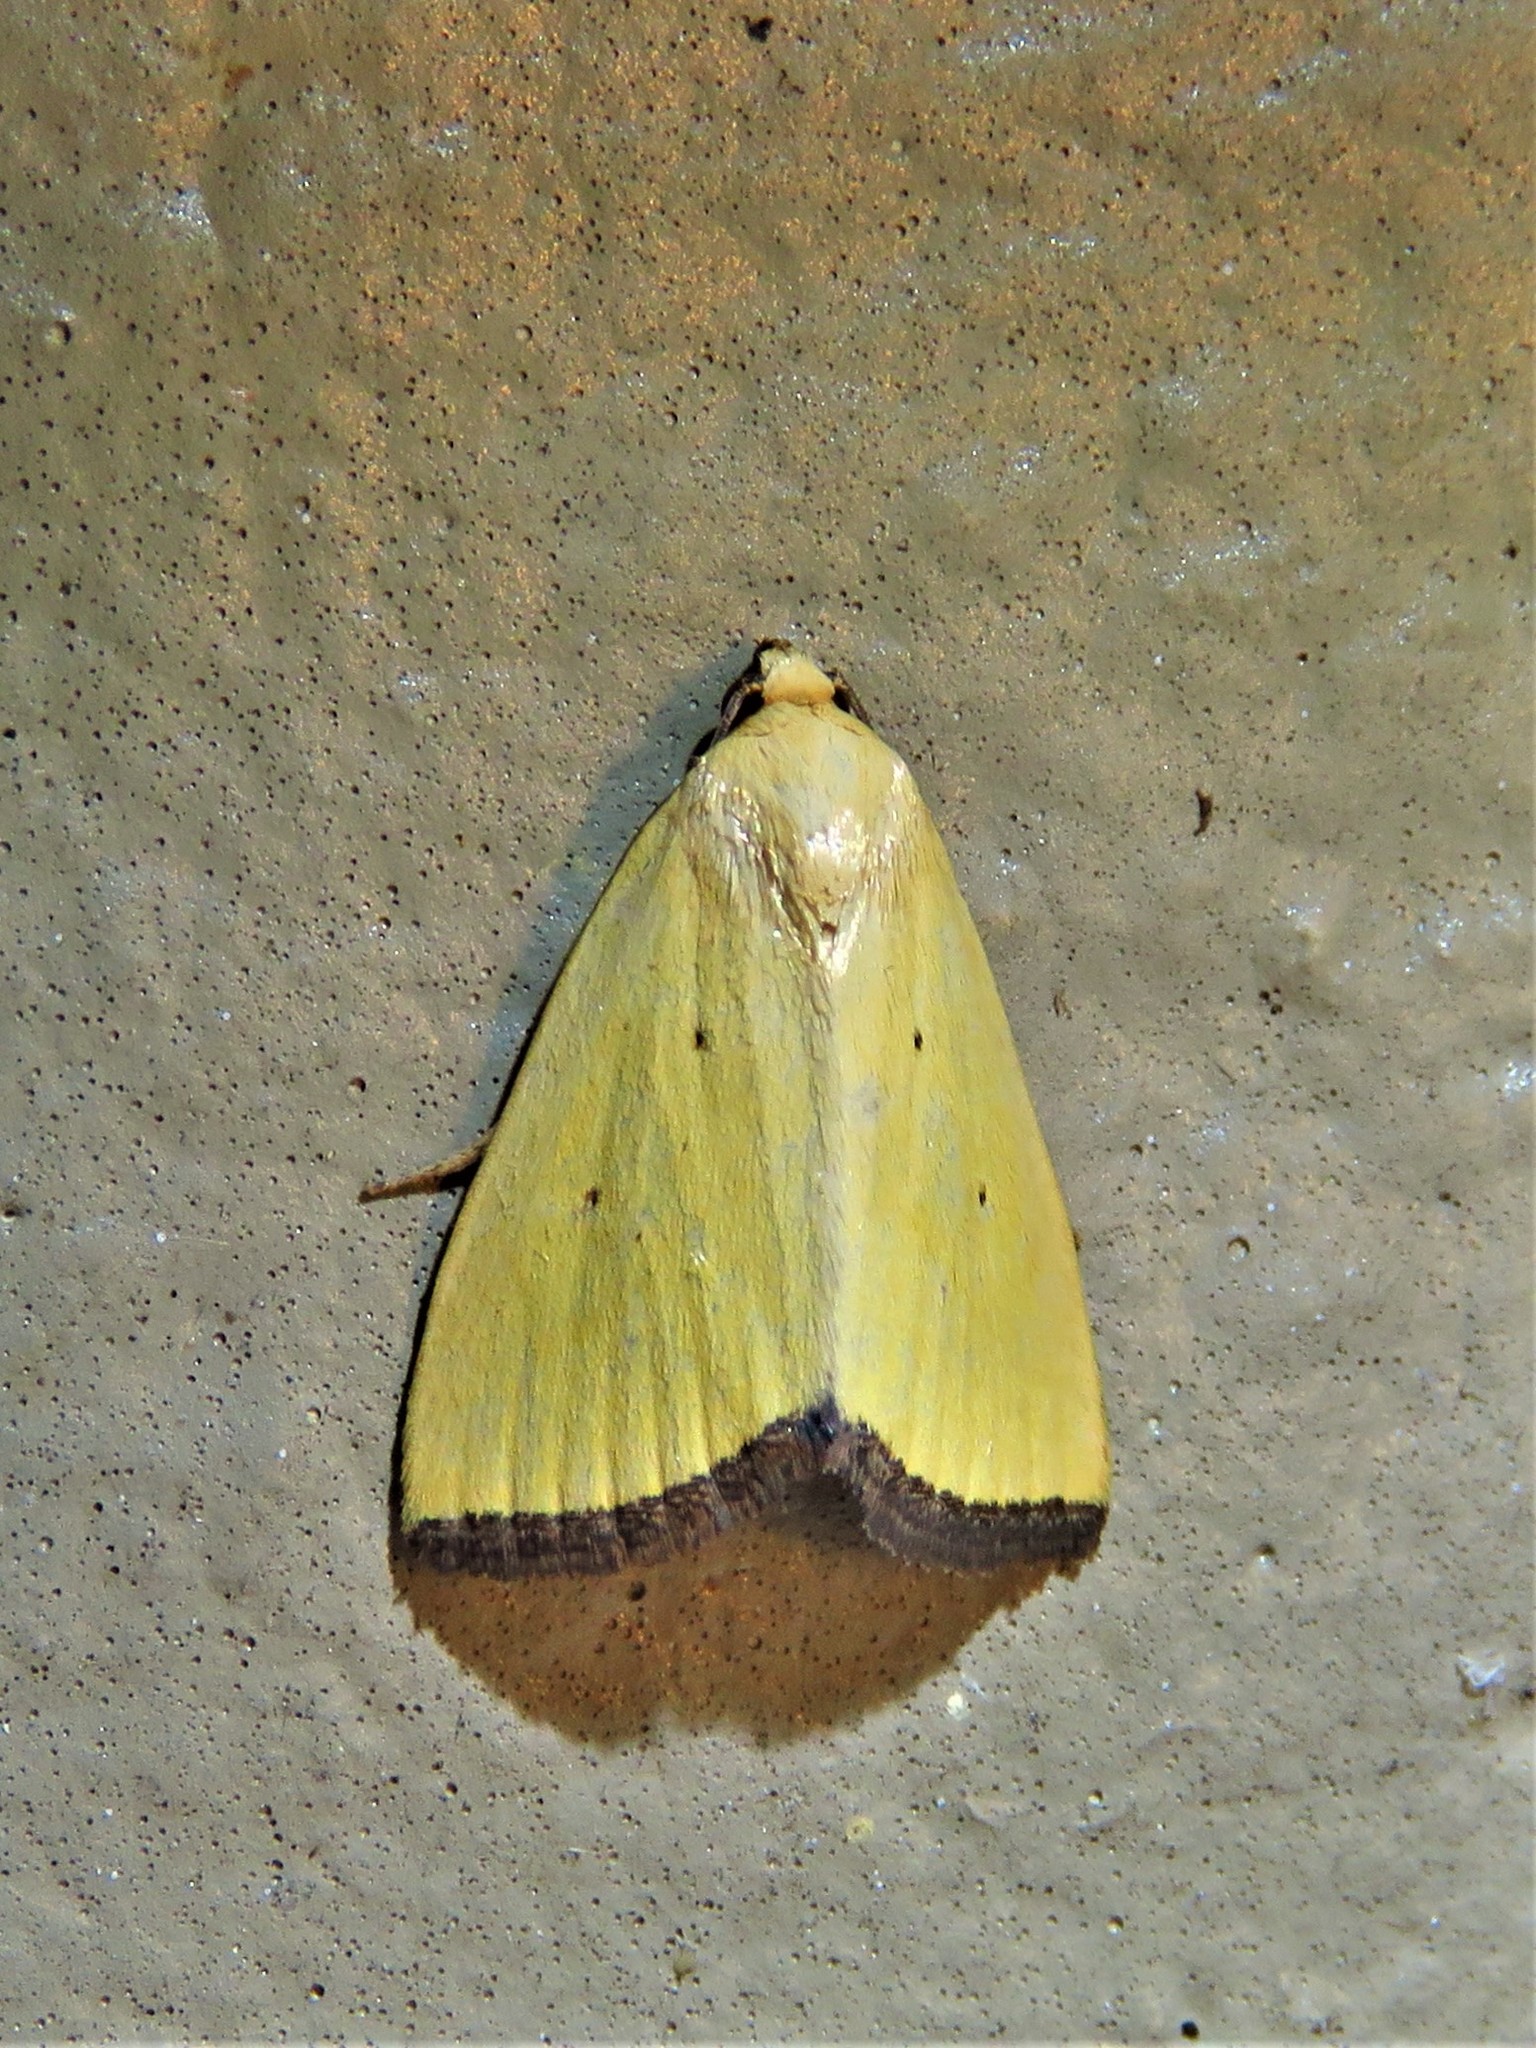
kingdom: Animalia
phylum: Arthropoda
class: Insecta
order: Lepidoptera
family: Noctuidae
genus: Marimatha
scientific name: Marimatha nigrofimbria
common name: Black-bordered lemon moth
